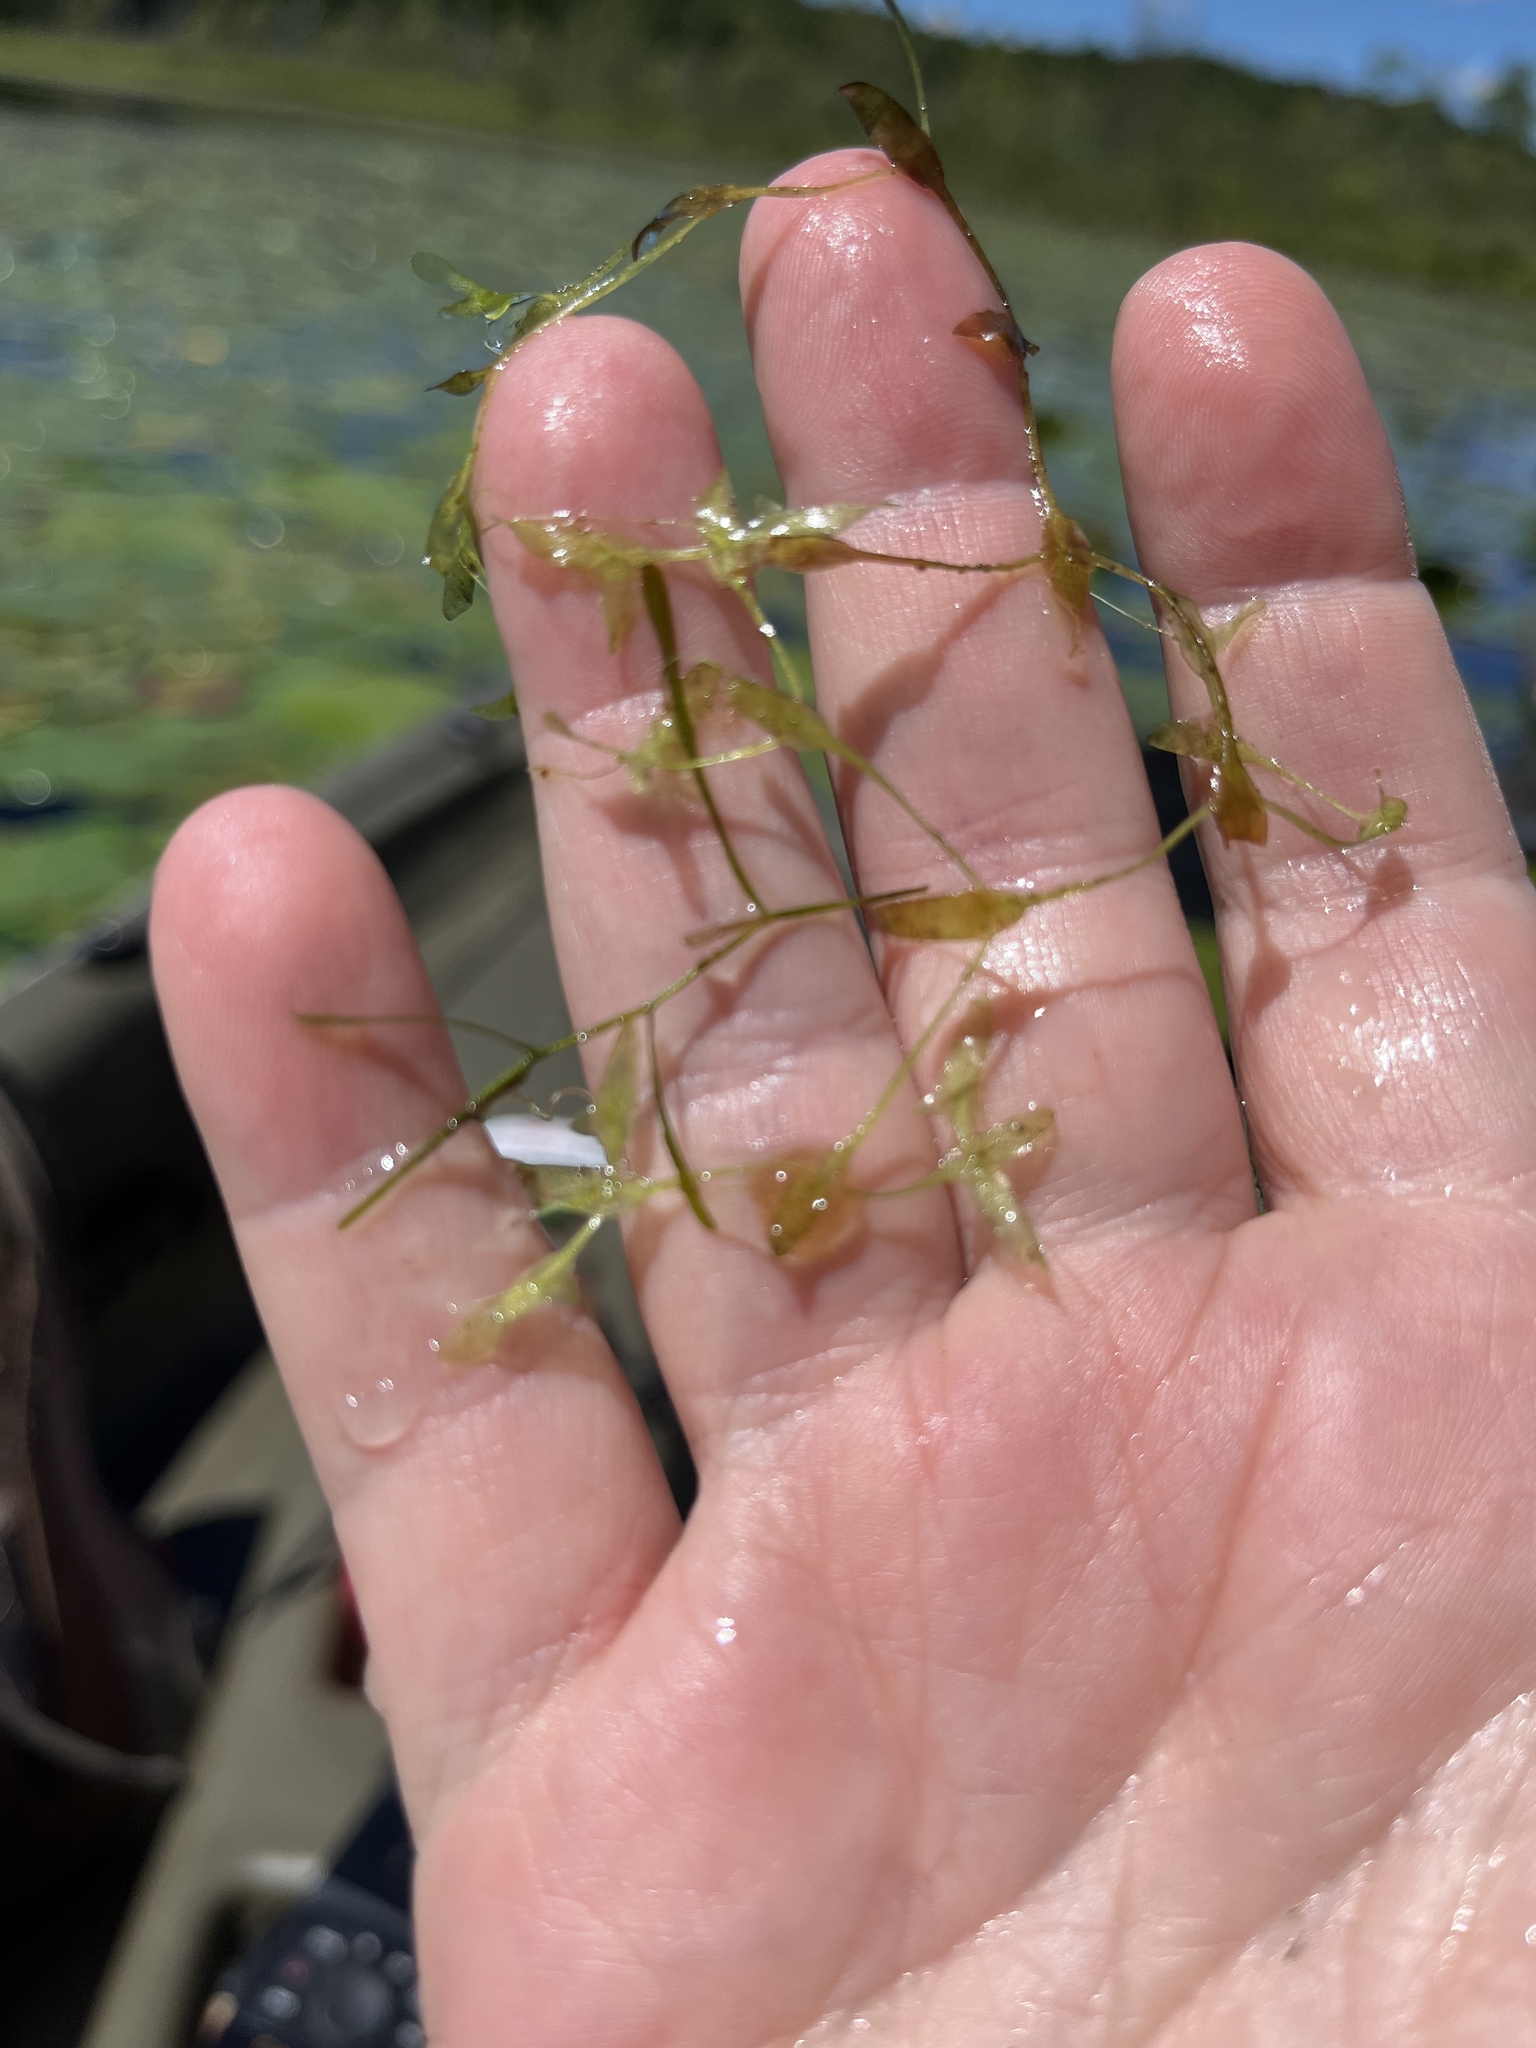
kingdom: Plantae
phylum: Tracheophyta
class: Liliopsida
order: Alismatales
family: Araceae
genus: Lemna
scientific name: Lemna trisulca
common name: Ivy-leaved duckweed
